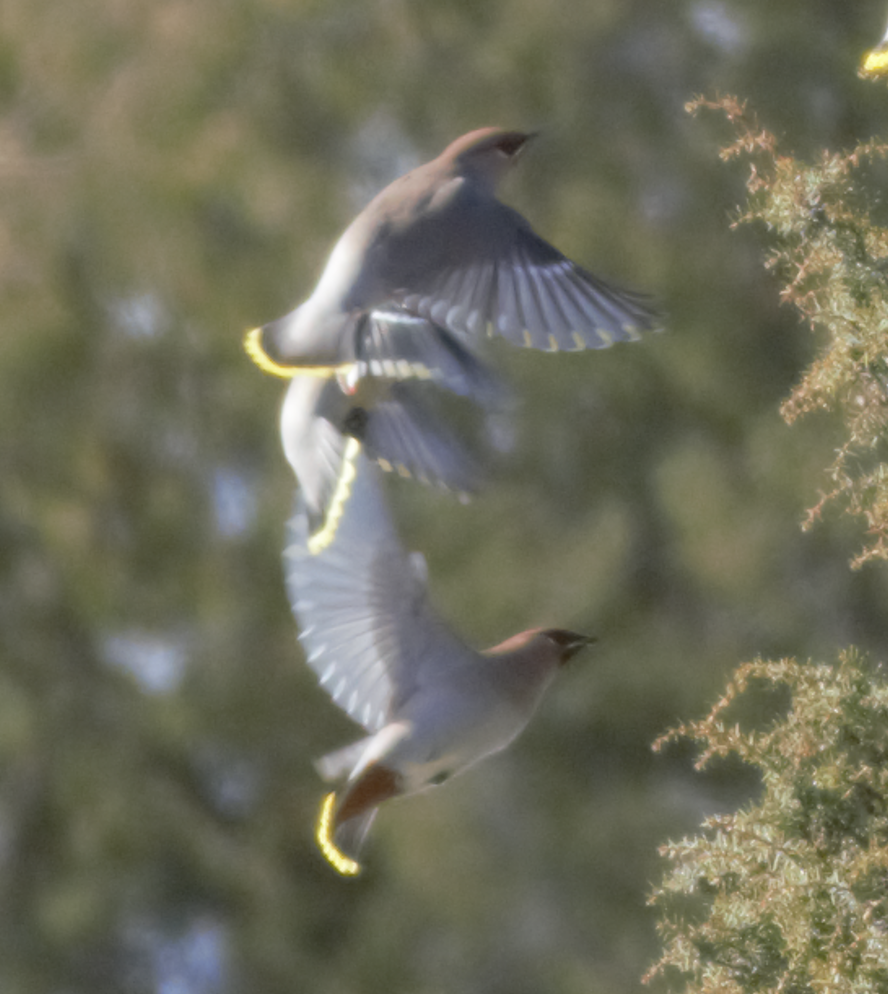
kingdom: Animalia
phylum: Chordata
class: Aves
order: Passeriformes
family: Bombycillidae
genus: Bombycilla
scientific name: Bombycilla garrulus
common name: Bohemian waxwing
